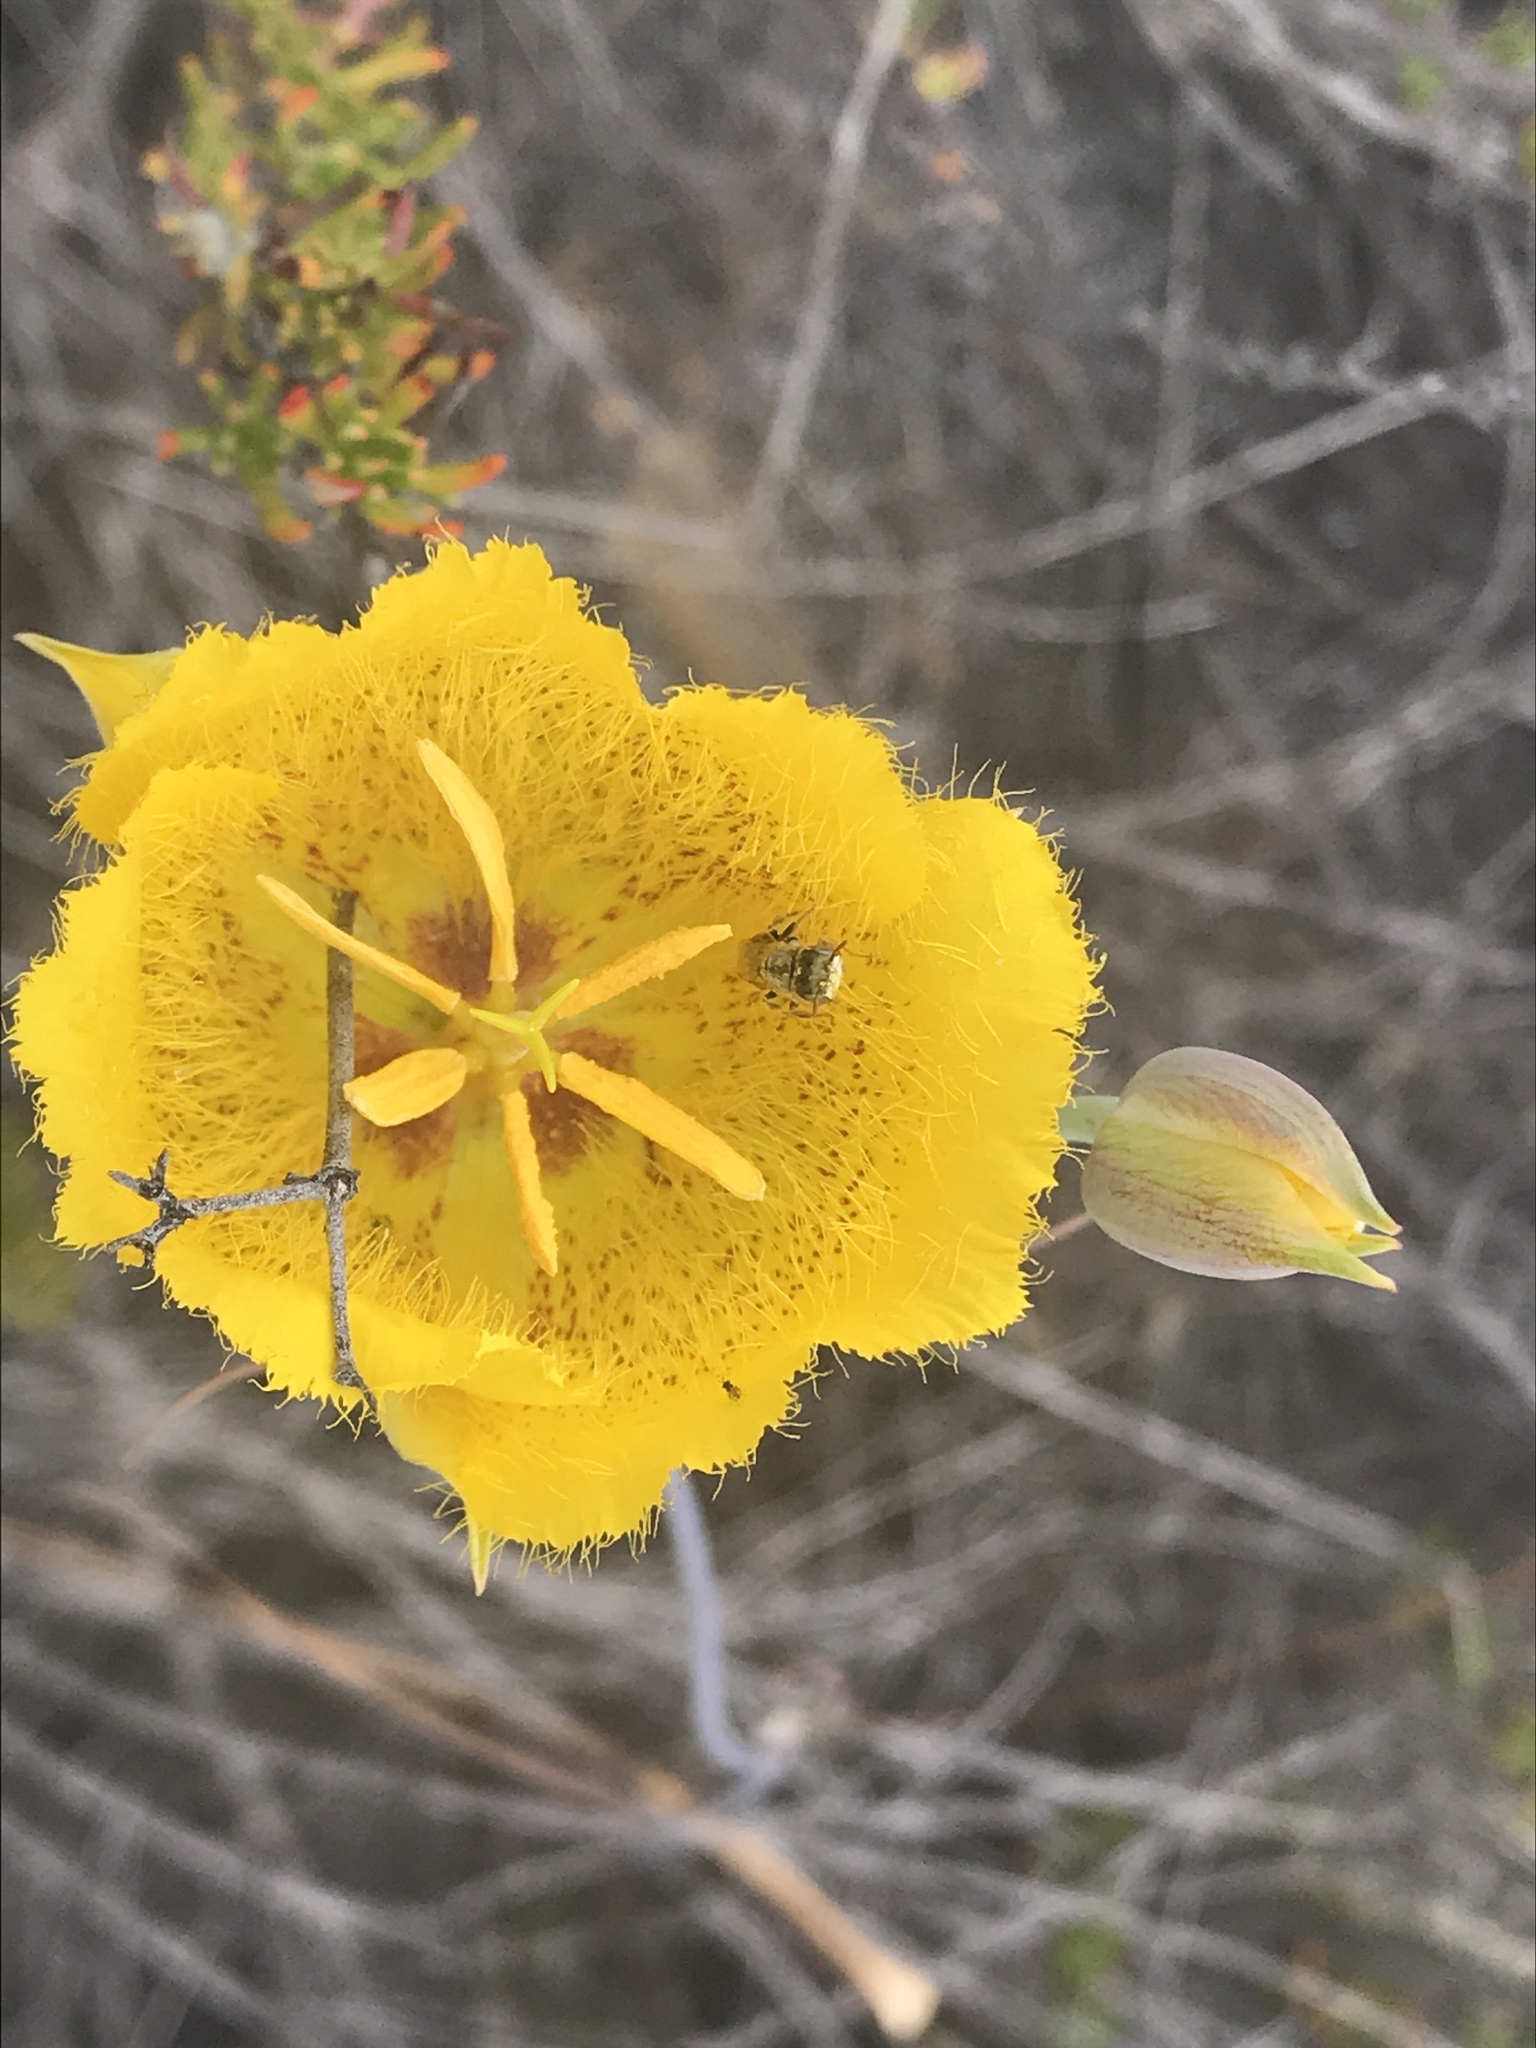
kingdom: Plantae
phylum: Tracheophyta
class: Liliopsida
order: Liliales
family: Liliaceae
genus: Calochortus
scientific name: Calochortus weedii
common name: Weed's mariposa-lily
